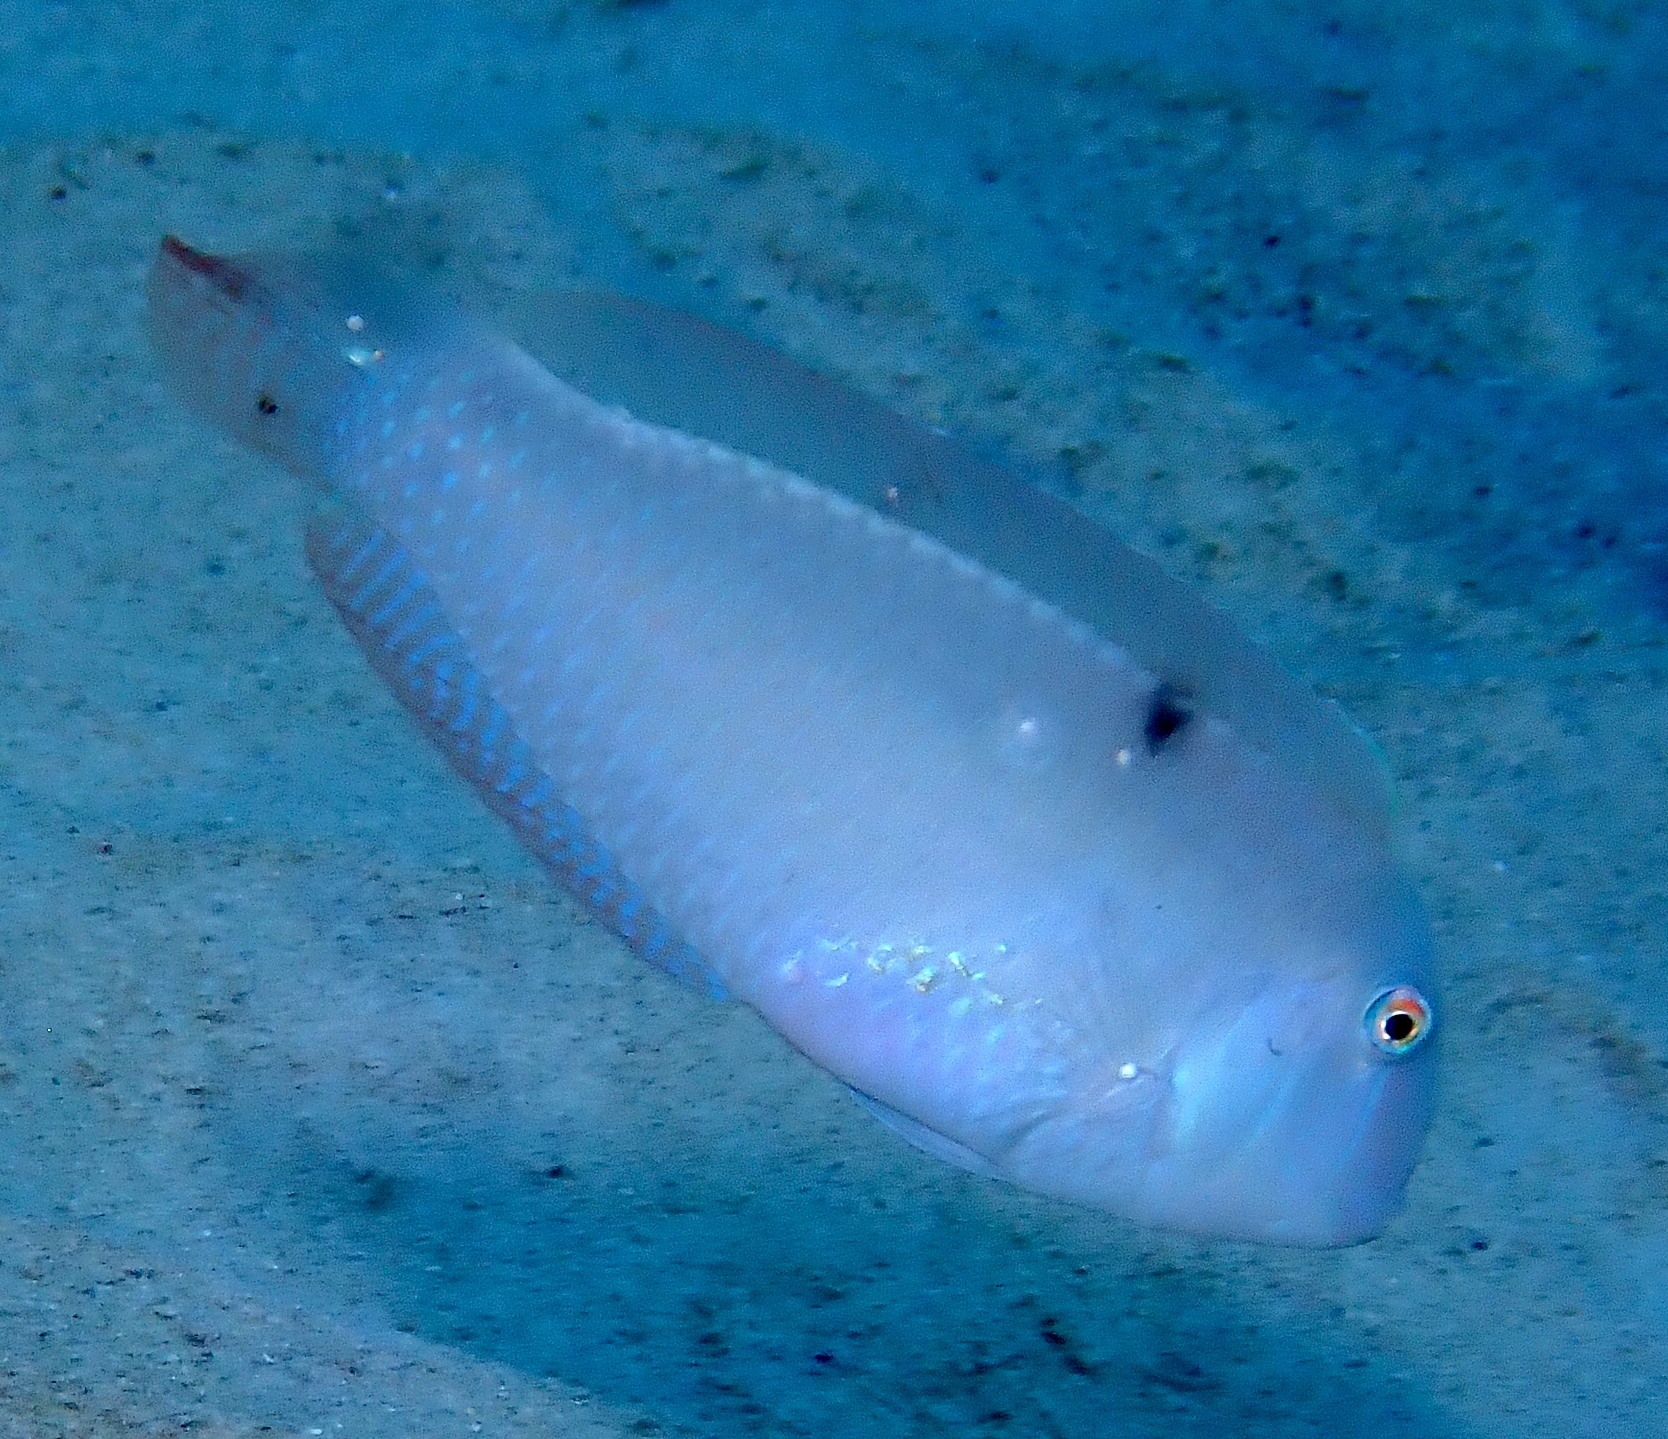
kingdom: Animalia
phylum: Chordata
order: Perciformes
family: Labridae
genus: Xyrichtys
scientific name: Xyrichtys novacula
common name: Pearly razorfish
